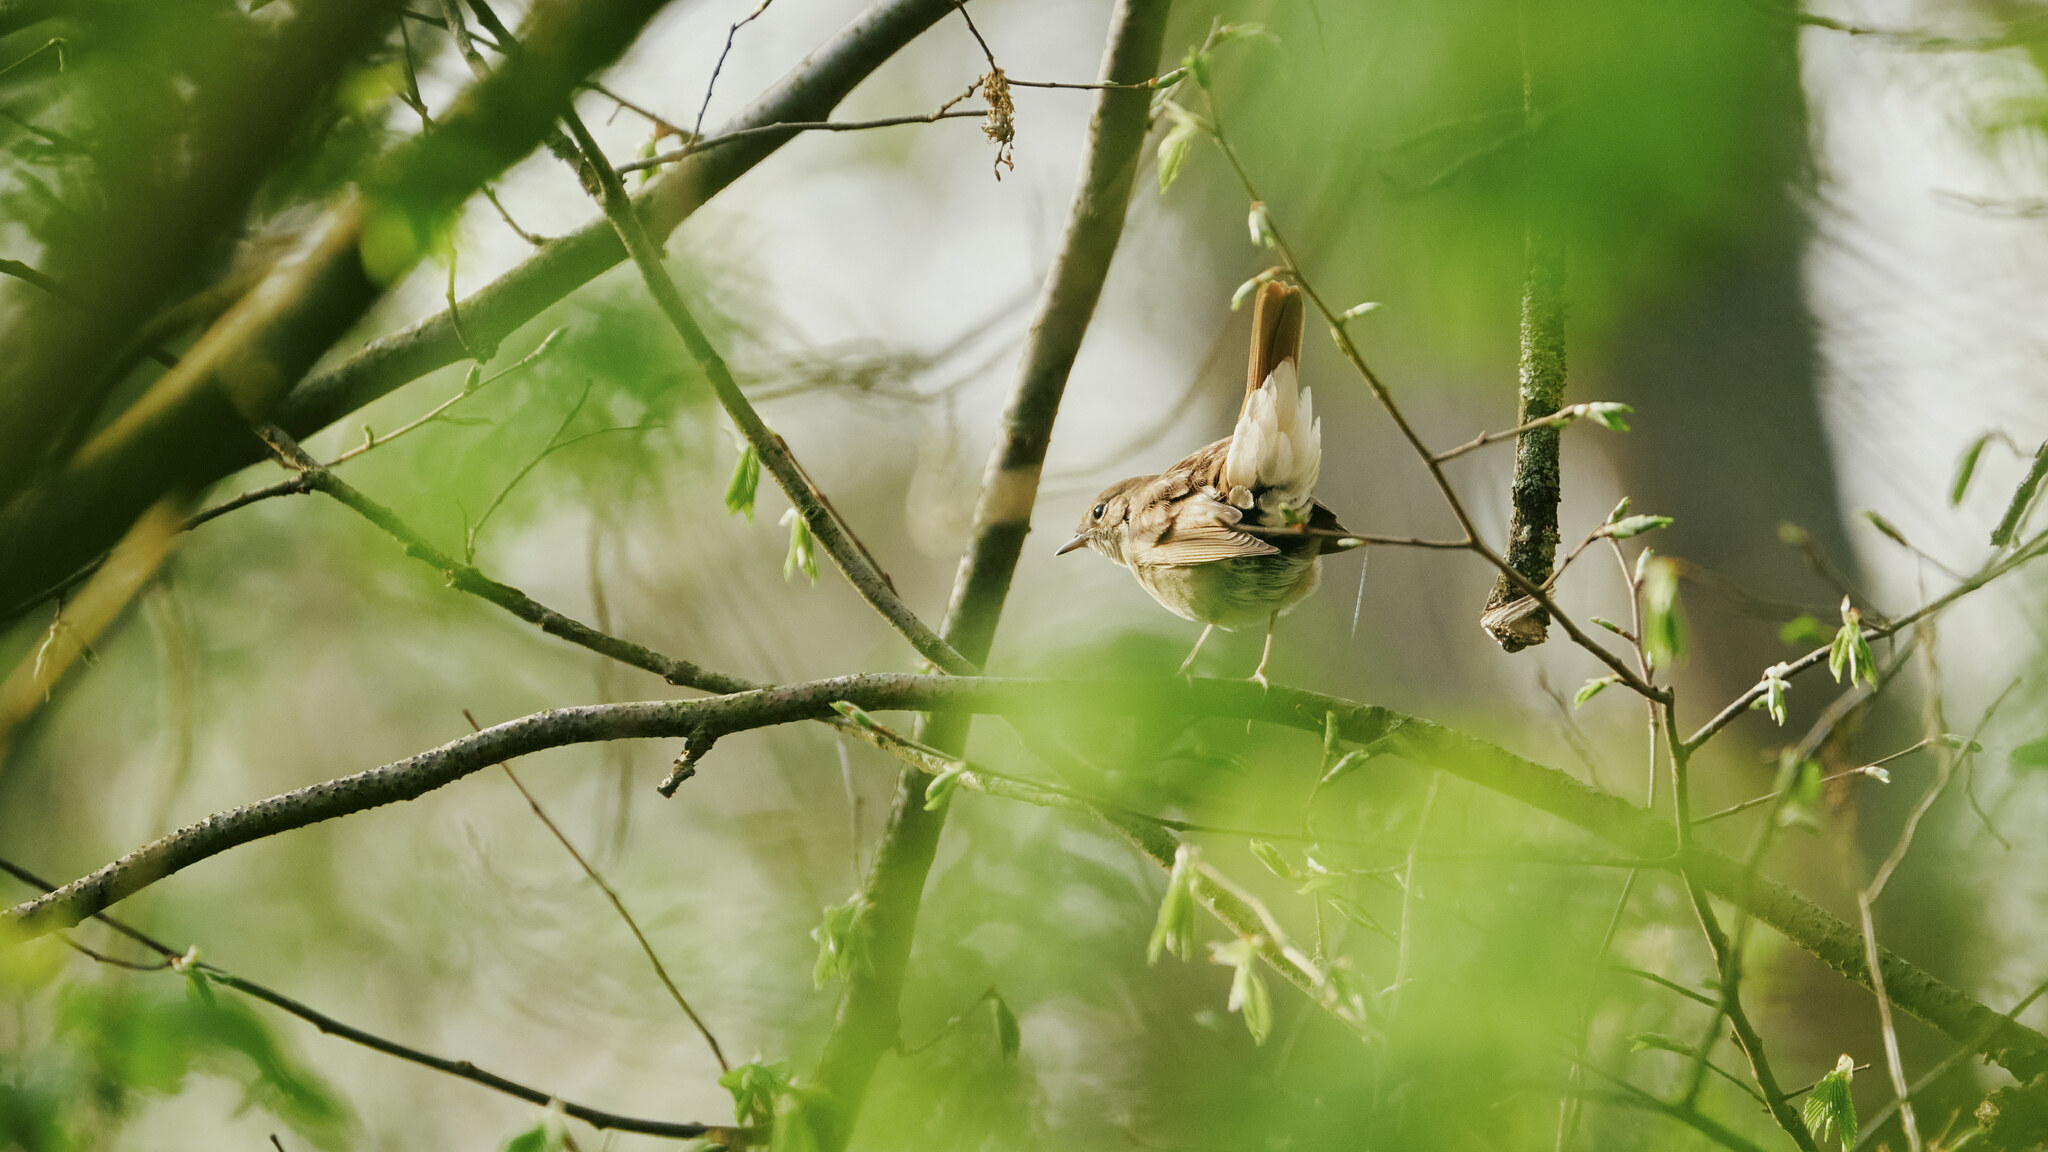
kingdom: Animalia
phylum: Chordata
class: Aves
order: Passeriformes
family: Muscicapidae
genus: Luscinia
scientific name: Luscinia megarhynchos
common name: Common nightingale
